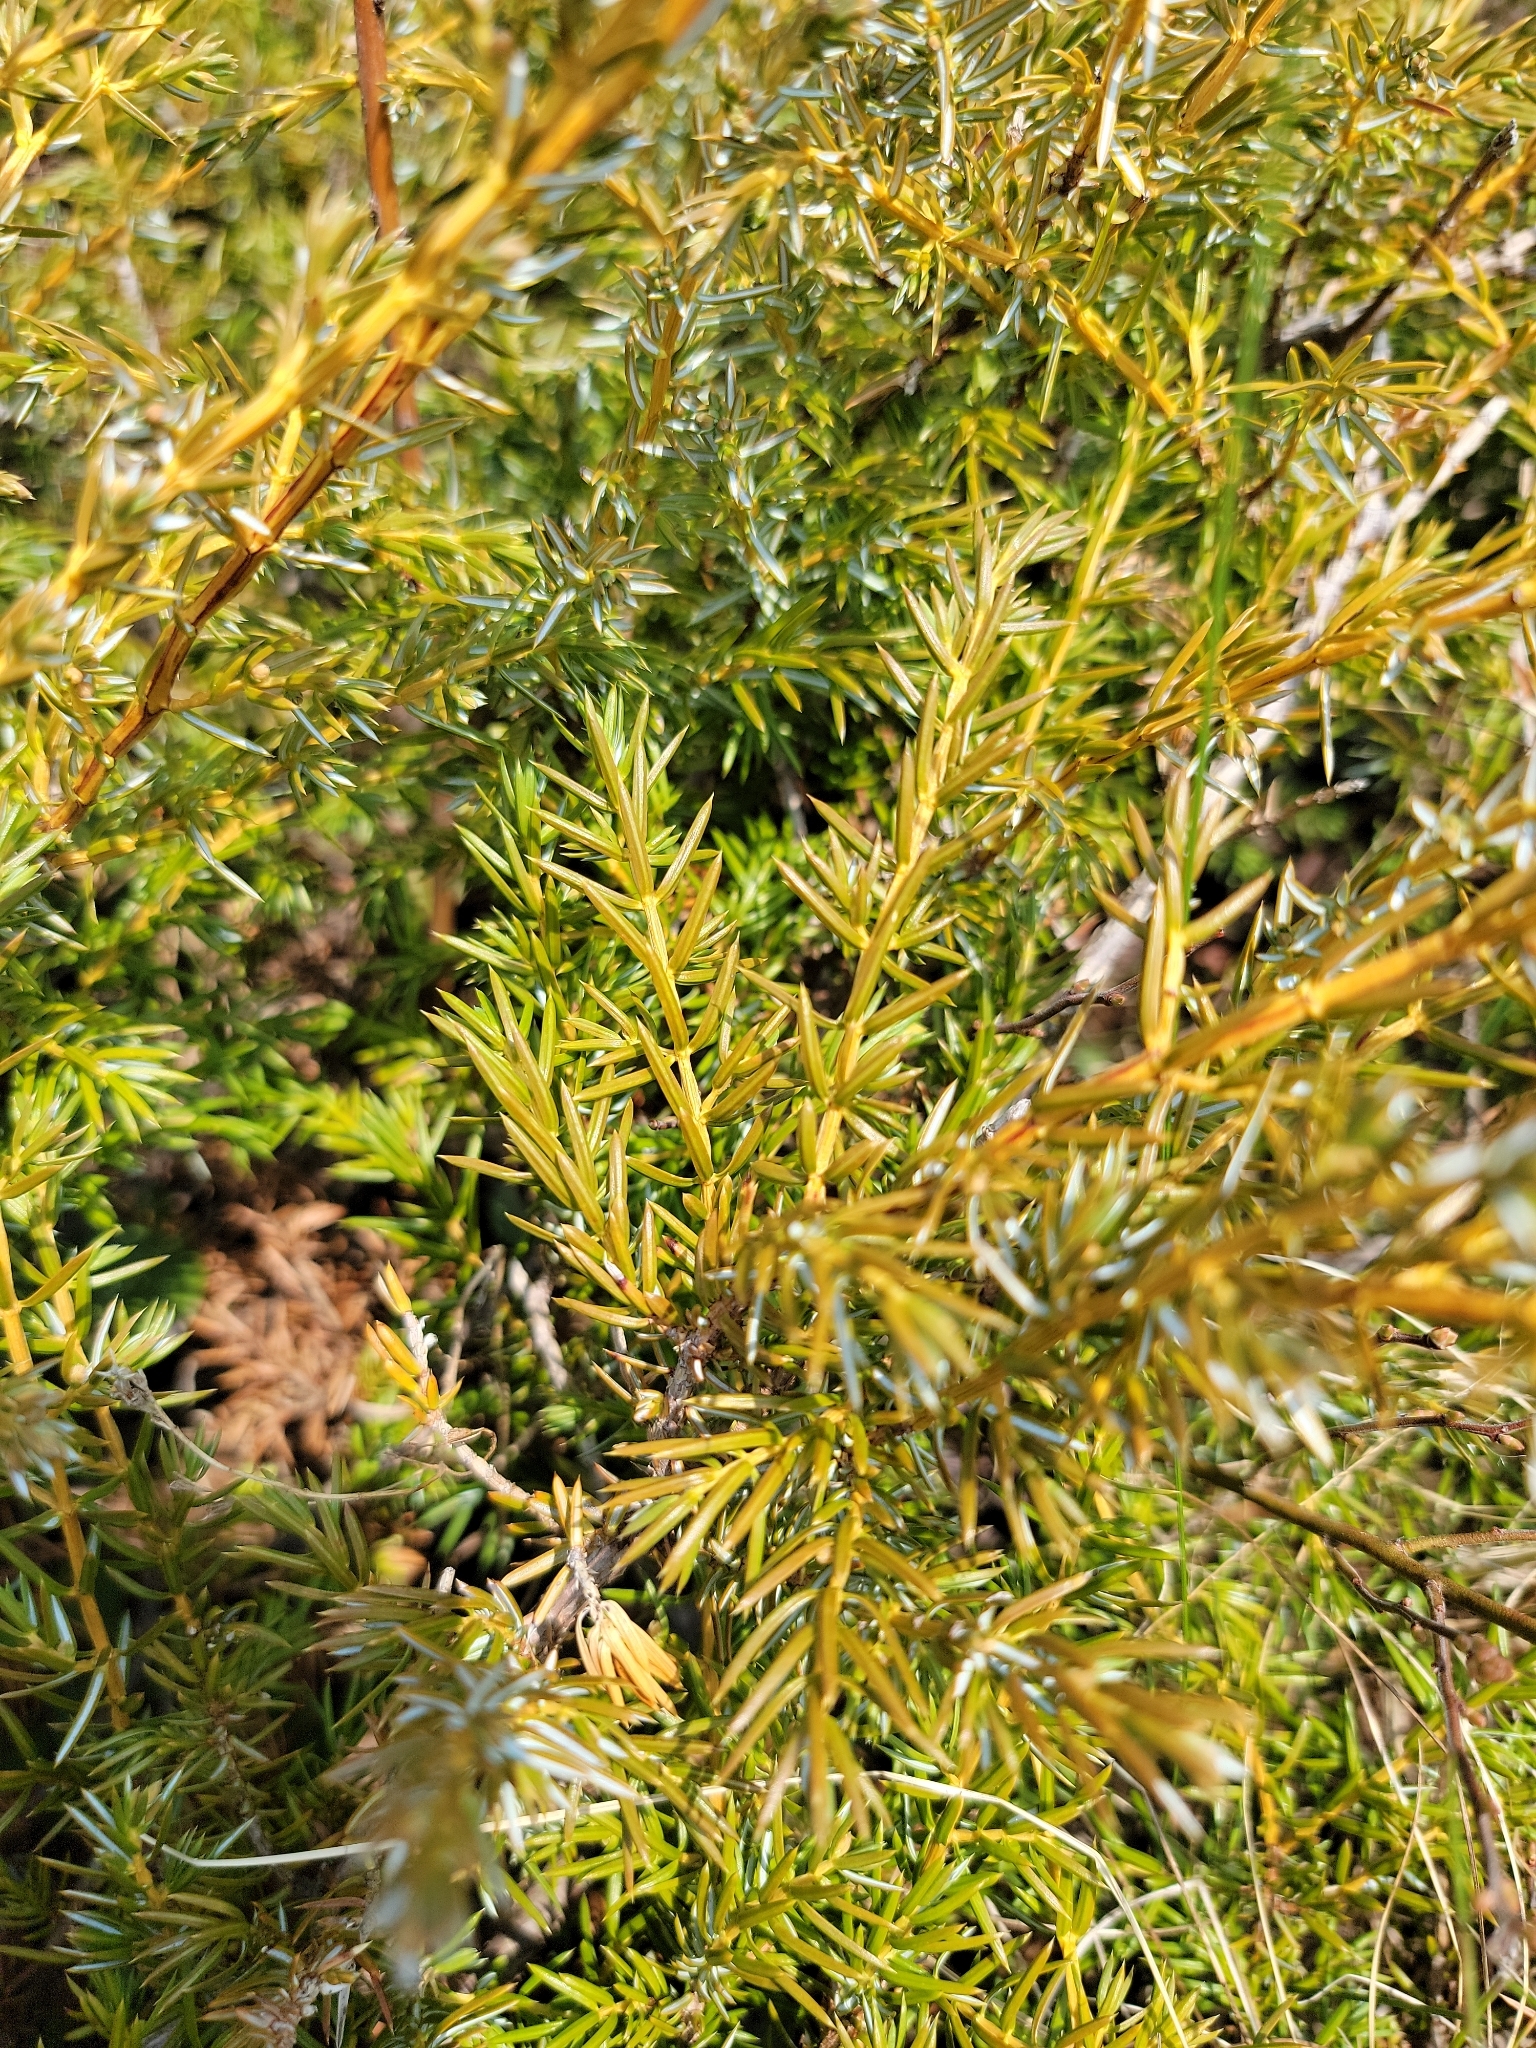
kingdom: Plantae
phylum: Tracheophyta
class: Pinopsida
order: Pinales
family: Cupressaceae
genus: Juniperus
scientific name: Juniperus communis
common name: Common juniper
